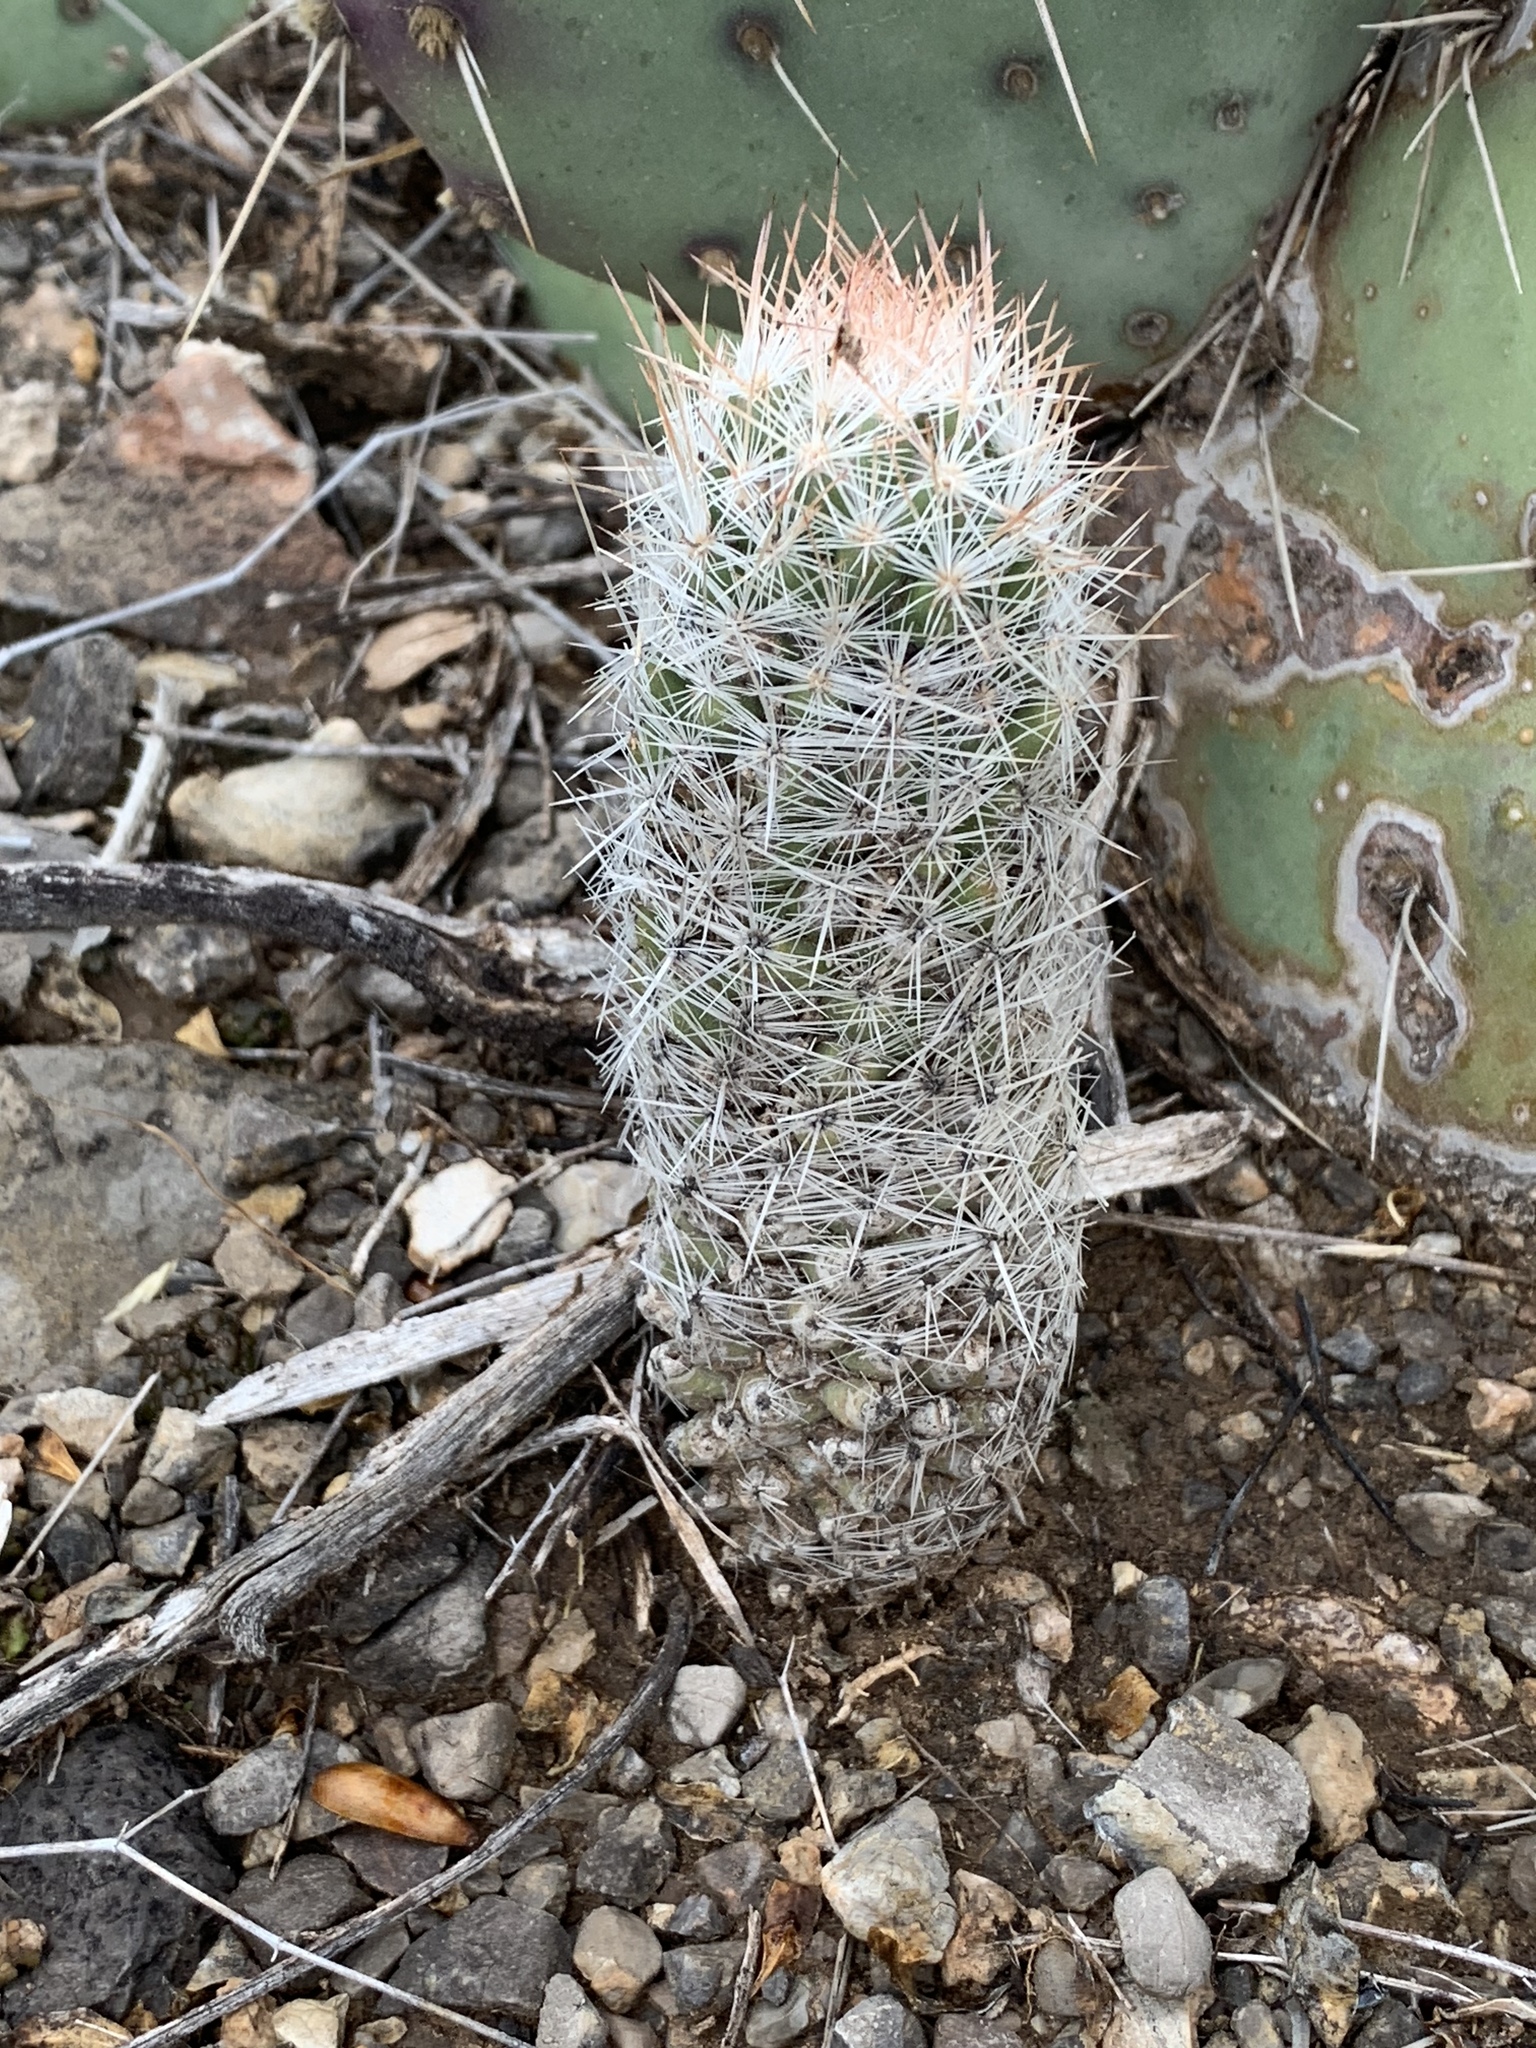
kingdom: Plantae
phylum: Tracheophyta
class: Magnoliopsida
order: Caryophyllales
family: Cactaceae
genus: Pelecyphora
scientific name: Pelecyphora tuberculosa
